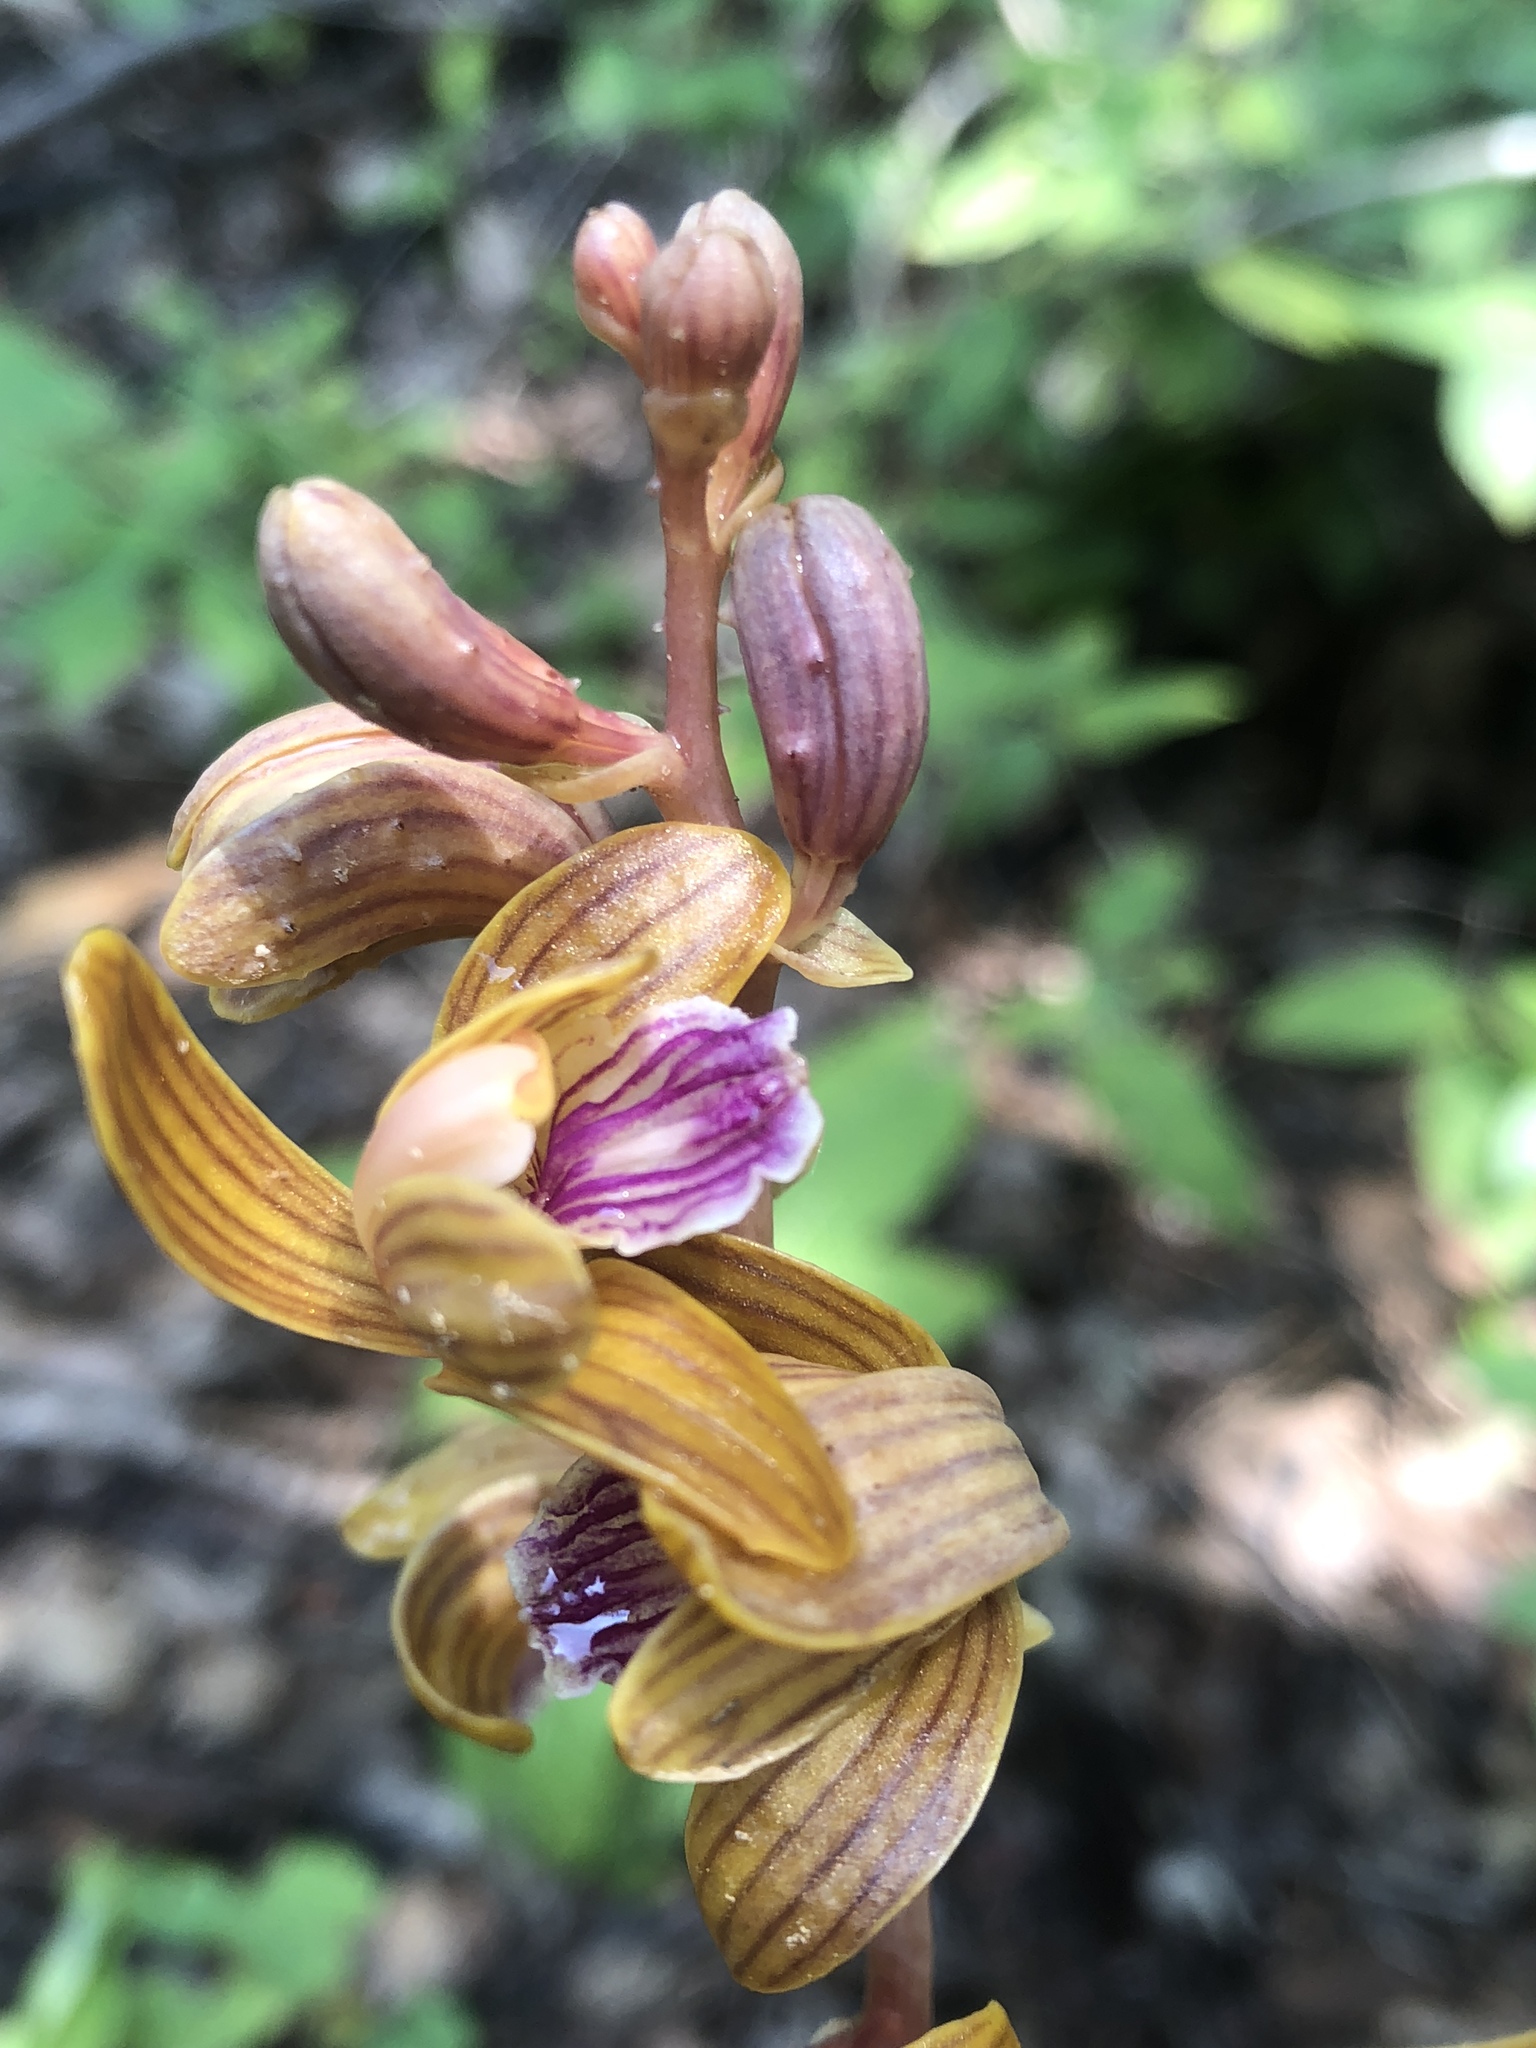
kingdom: Plantae
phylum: Tracheophyta
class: Liliopsida
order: Asparagales
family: Orchidaceae
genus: Bletia
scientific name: Bletia spicata
